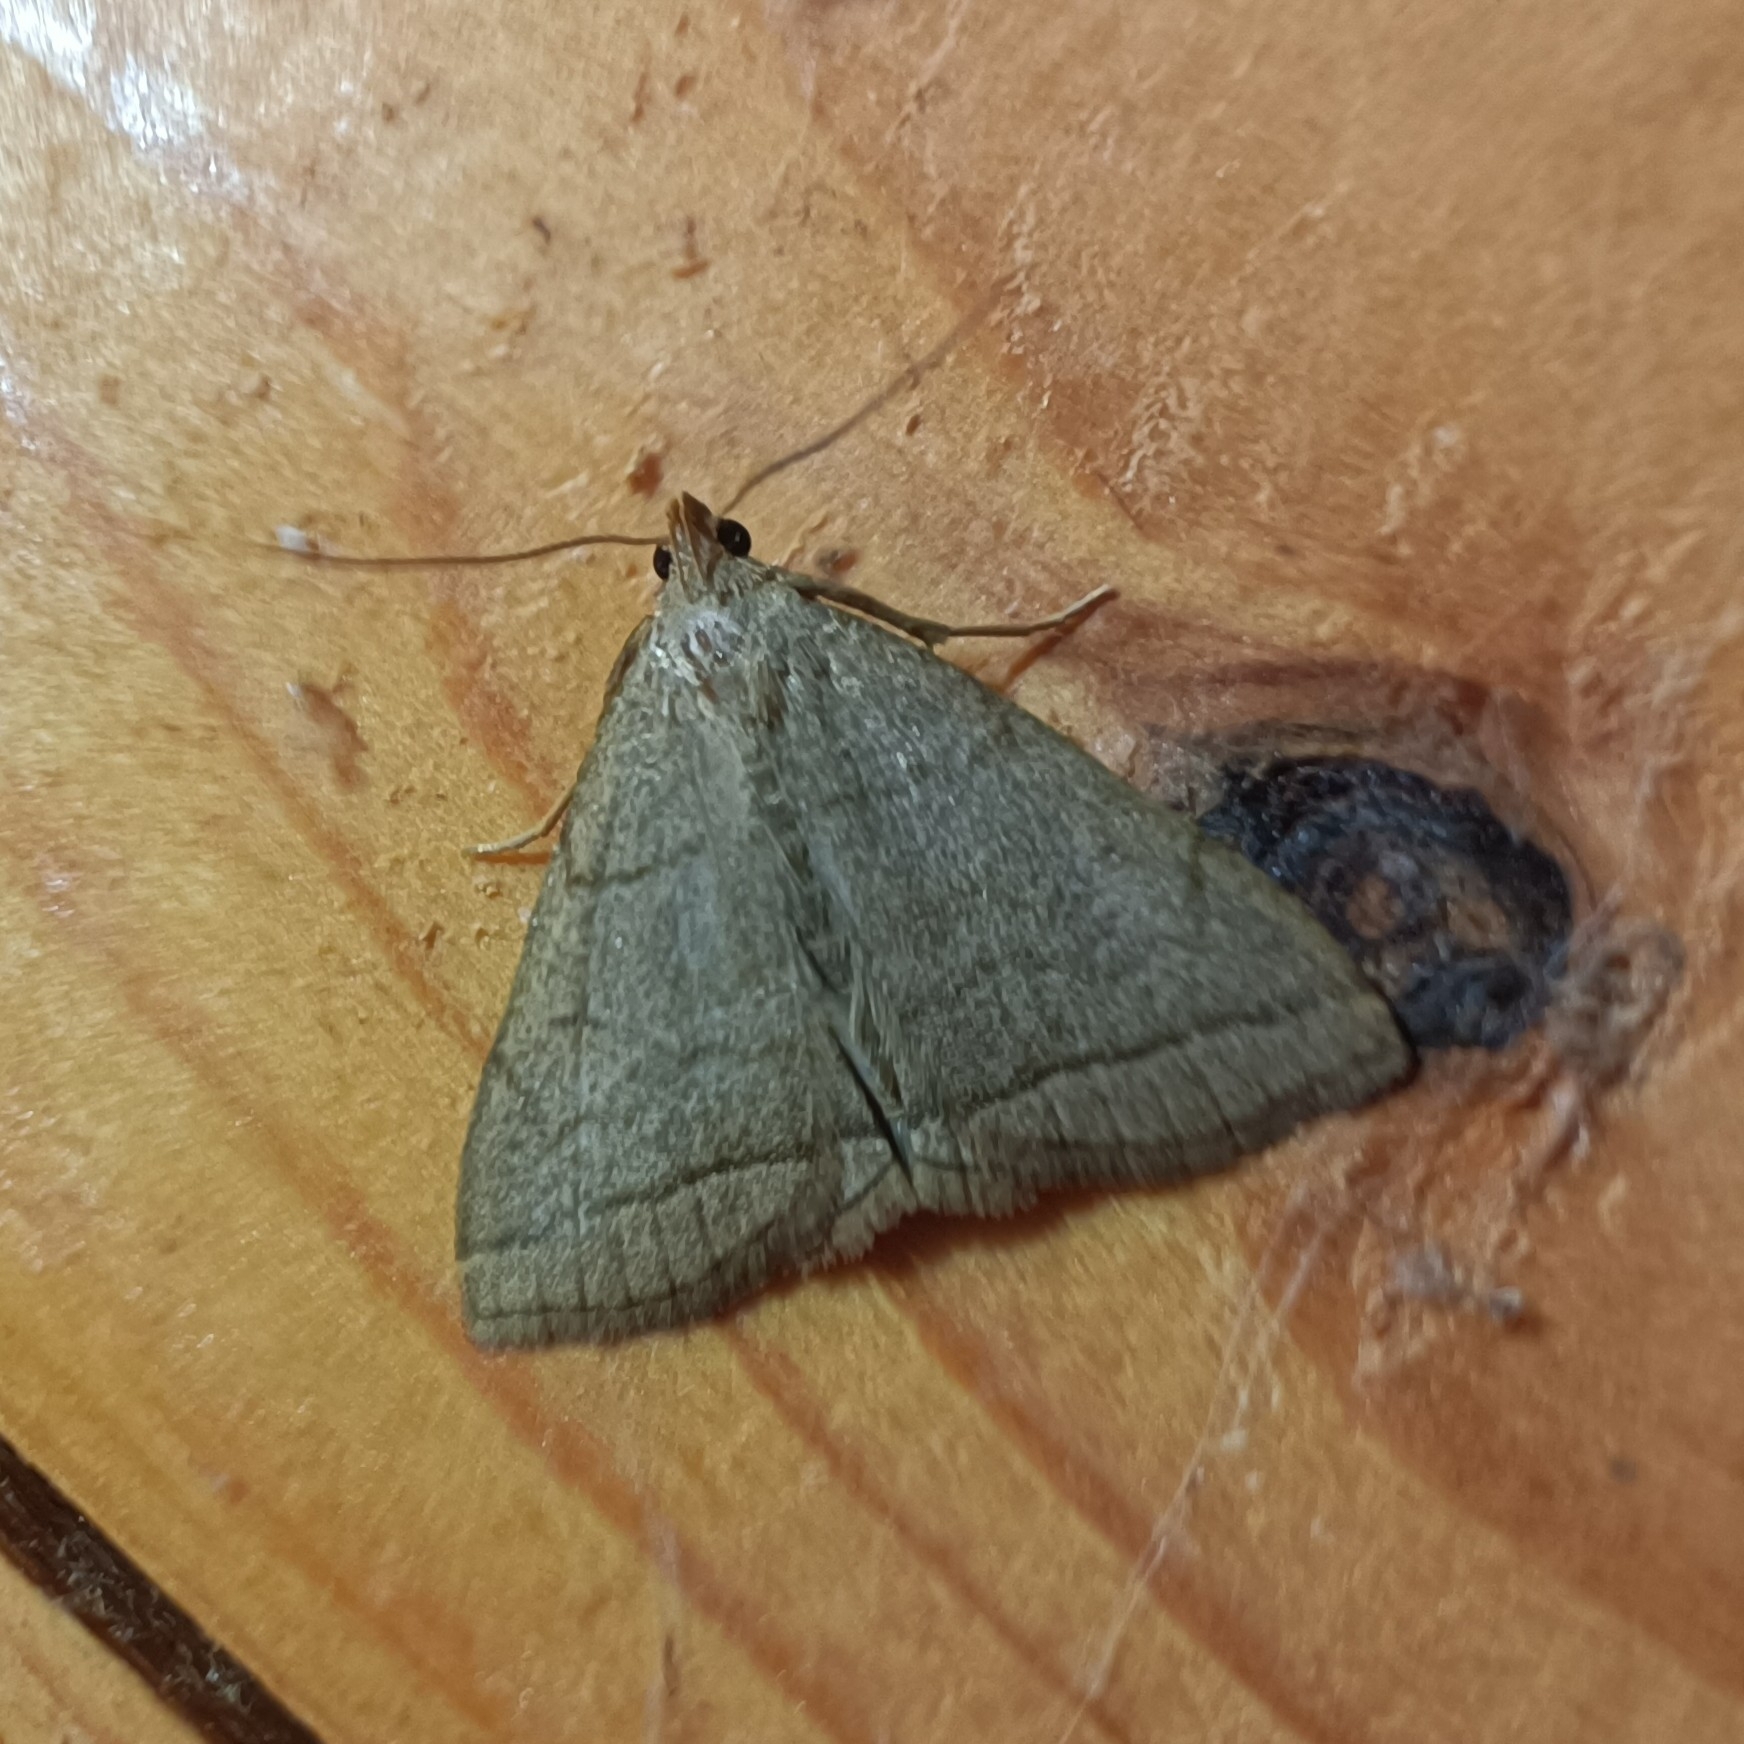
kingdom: Animalia
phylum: Arthropoda
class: Insecta
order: Lepidoptera
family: Erebidae
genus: Herminia
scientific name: Herminia tarsicrinalis
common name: Shaded fan-foot
